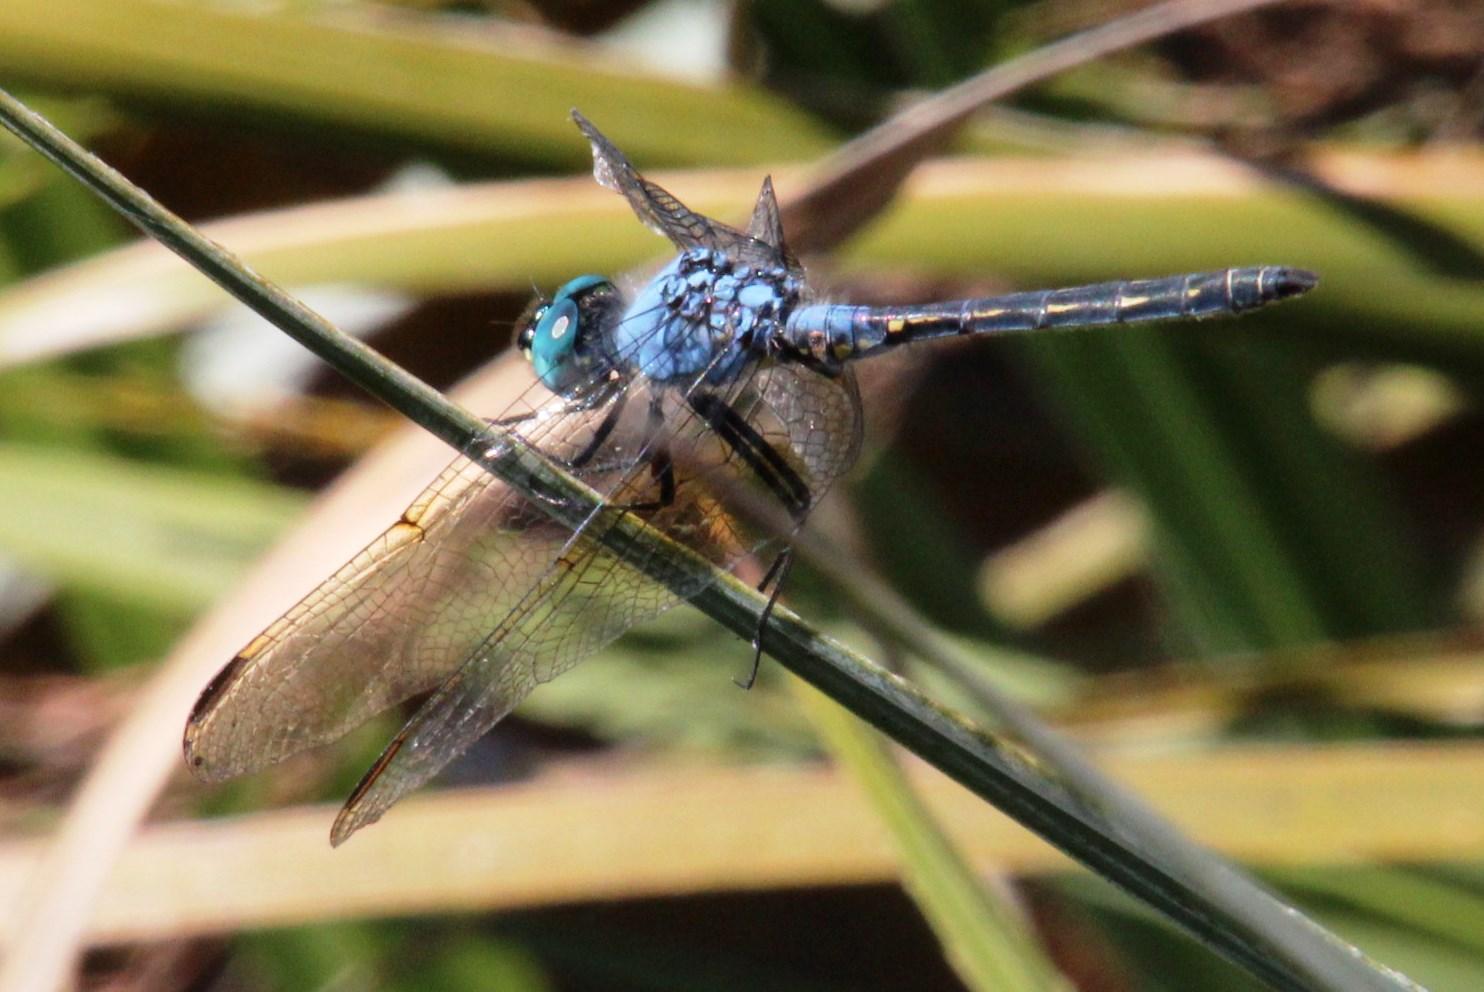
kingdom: Animalia
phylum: Arthropoda
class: Insecta
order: Odonata
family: Libellulidae
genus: Trithemis
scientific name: Trithemis stictica
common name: Jaunty dropwing
